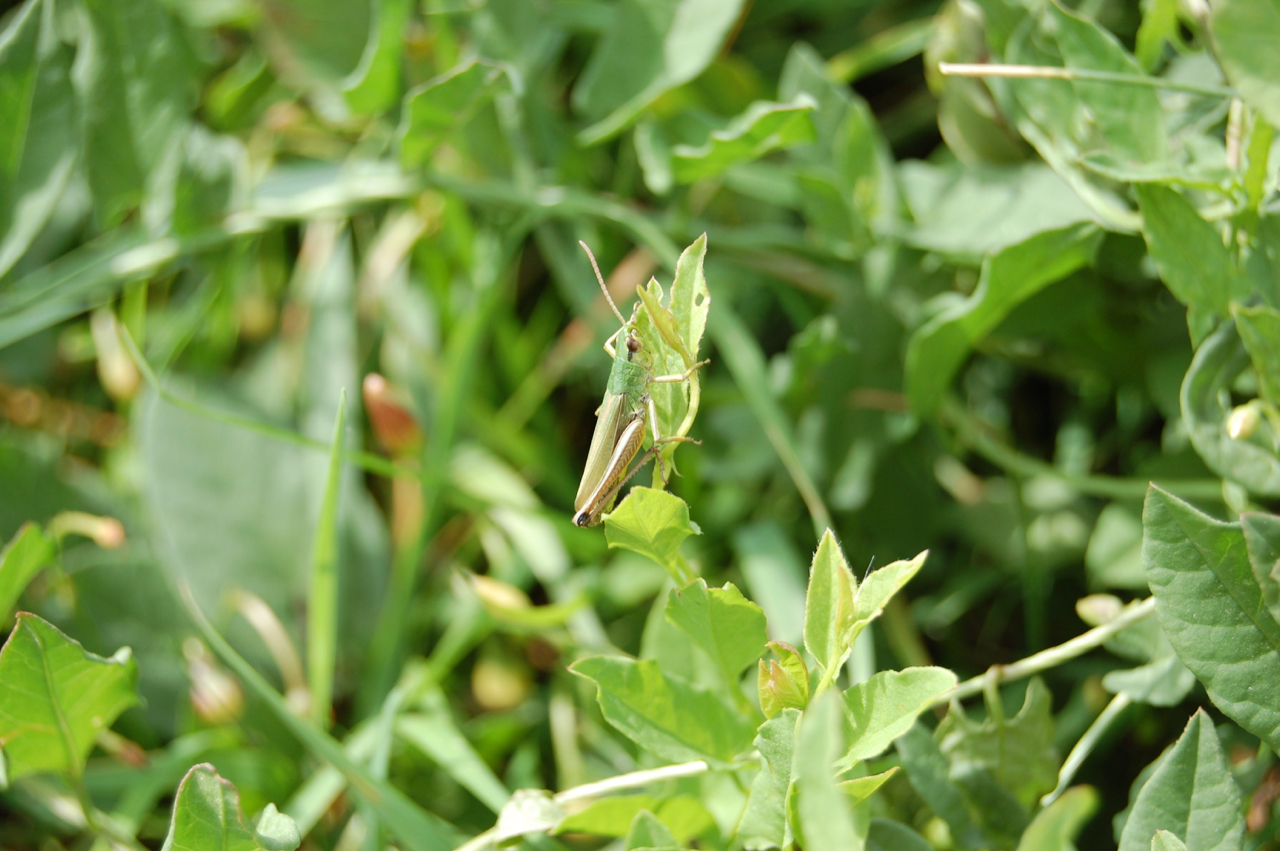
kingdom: Animalia
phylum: Arthropoda
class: Insecta
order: Orthoptera
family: Acrididae
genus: Pseudochorthippus
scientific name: Pseudochorthippus parallelus
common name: Meadow grasshopper
